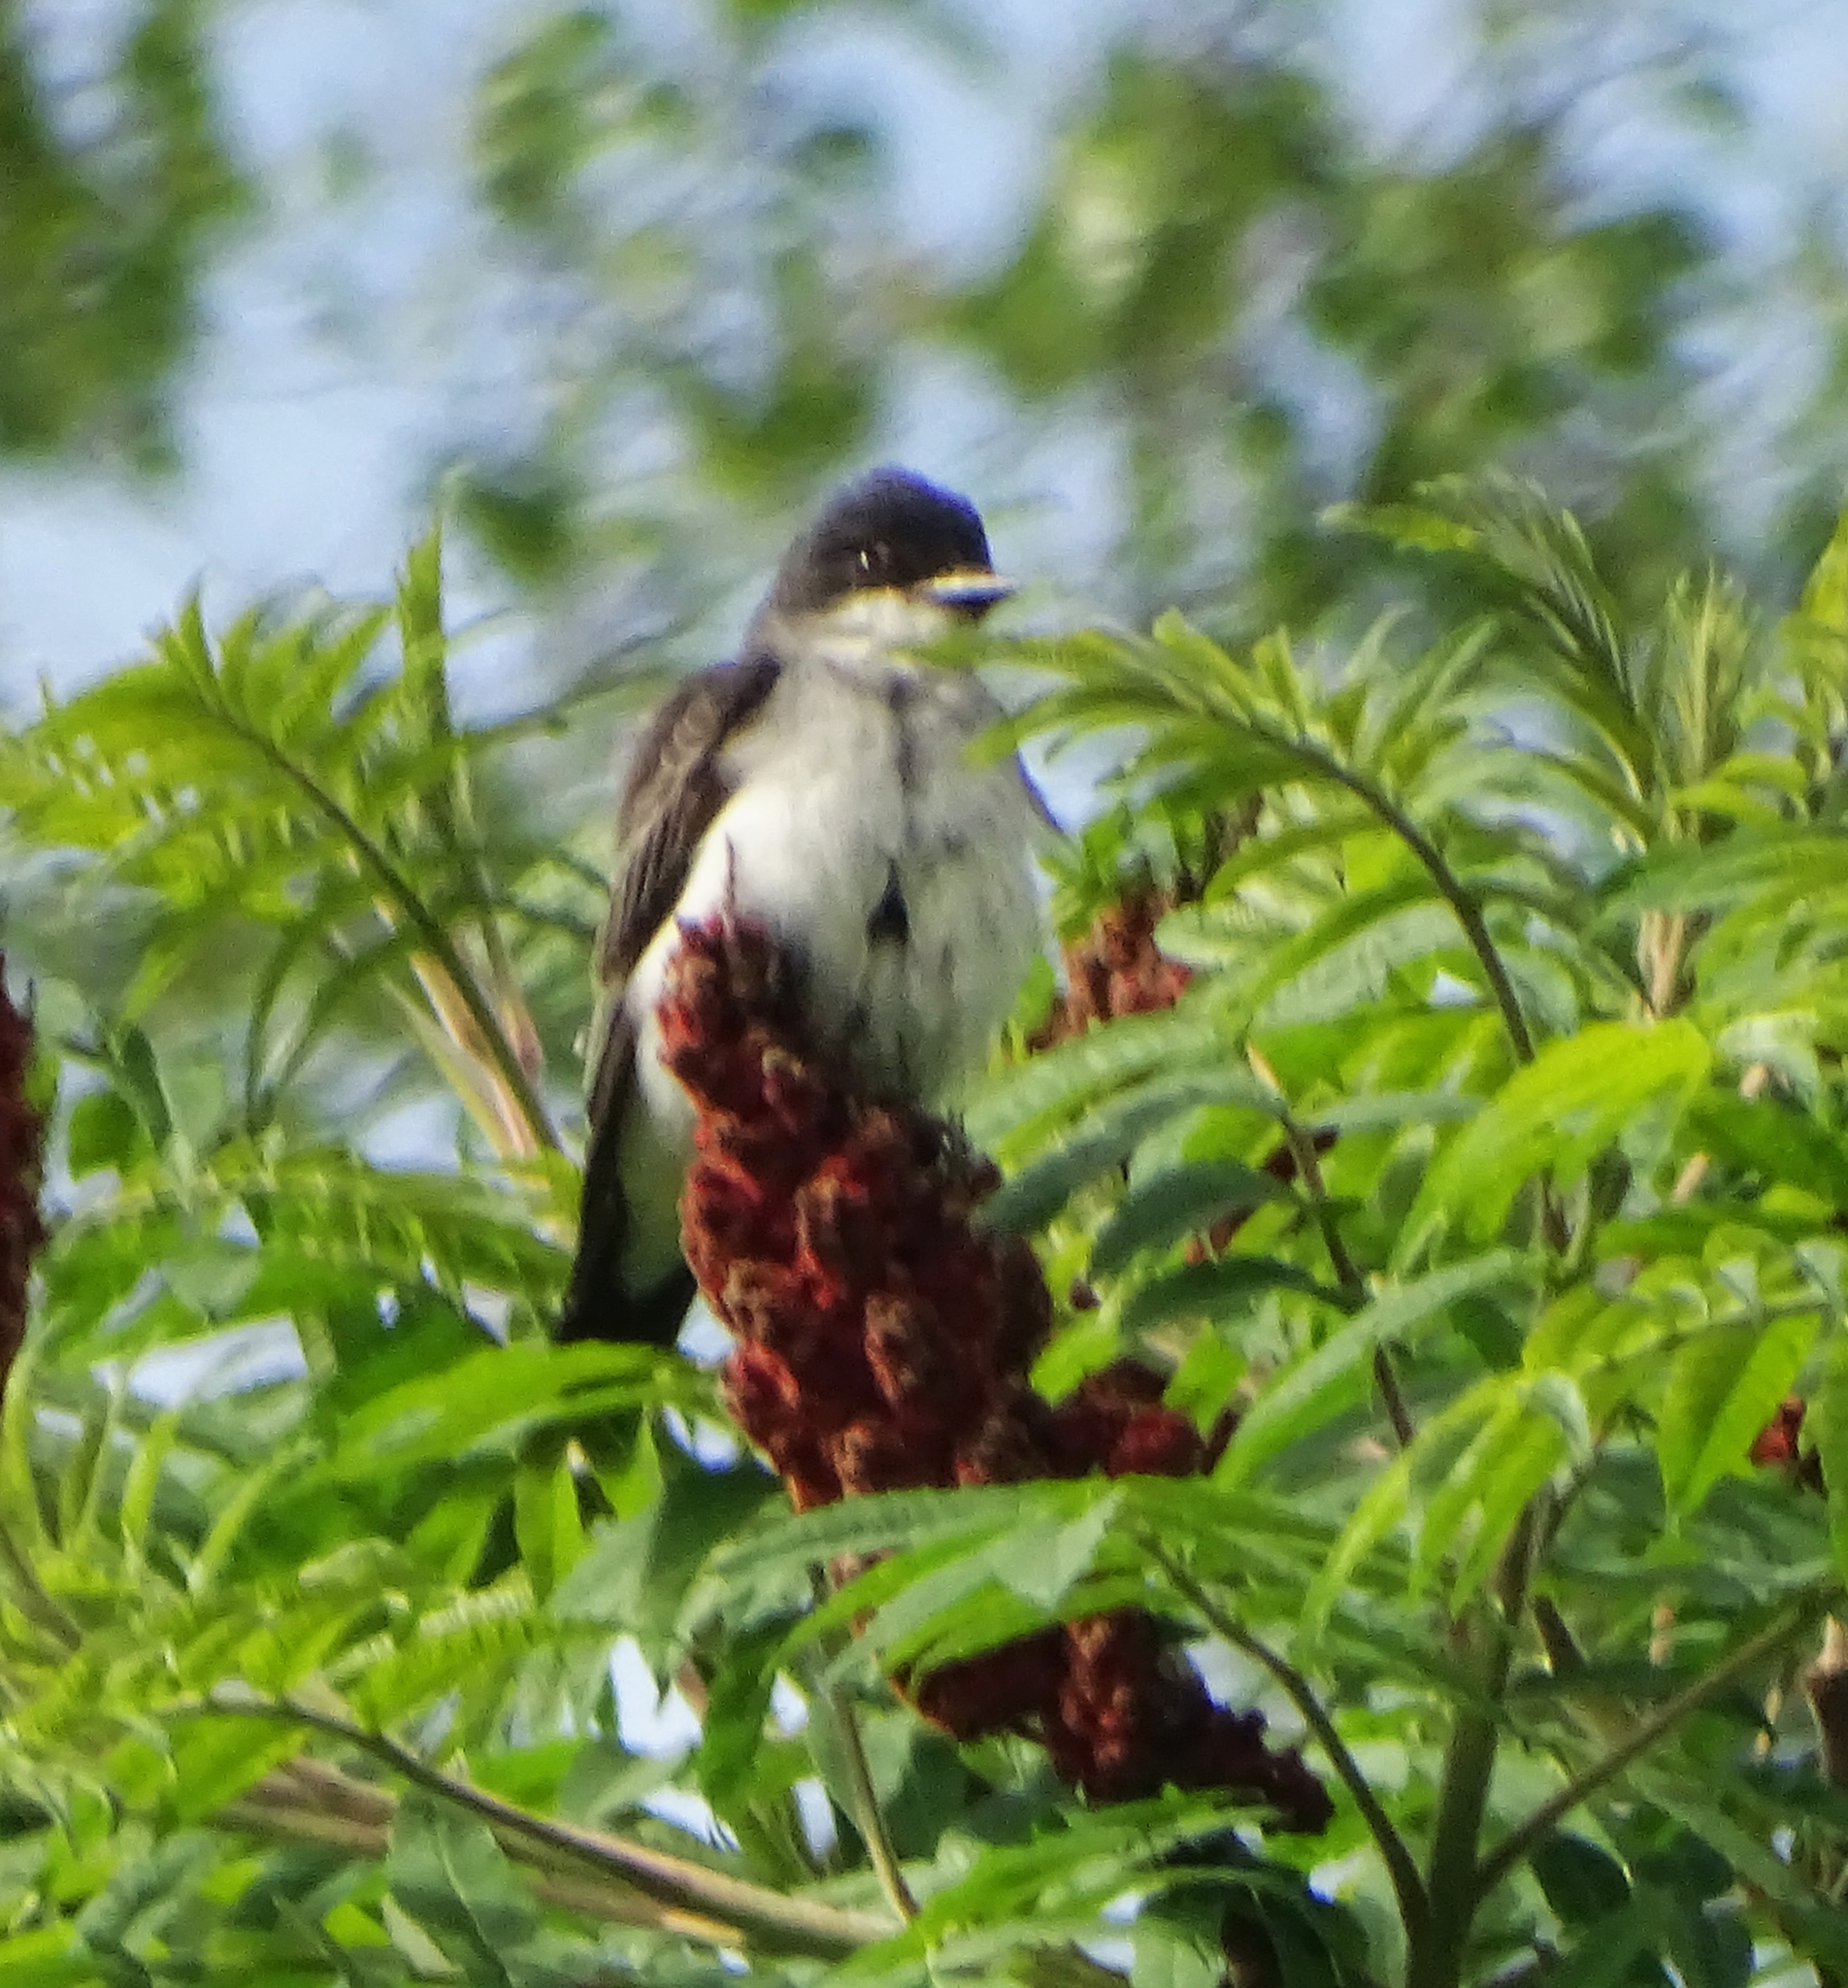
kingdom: Animalia
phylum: Chordata
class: Aves
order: Passeriformes
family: Tyrannidae
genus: Tyrannus
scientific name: Tyrannus tyrannus
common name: Eastern kingbird
